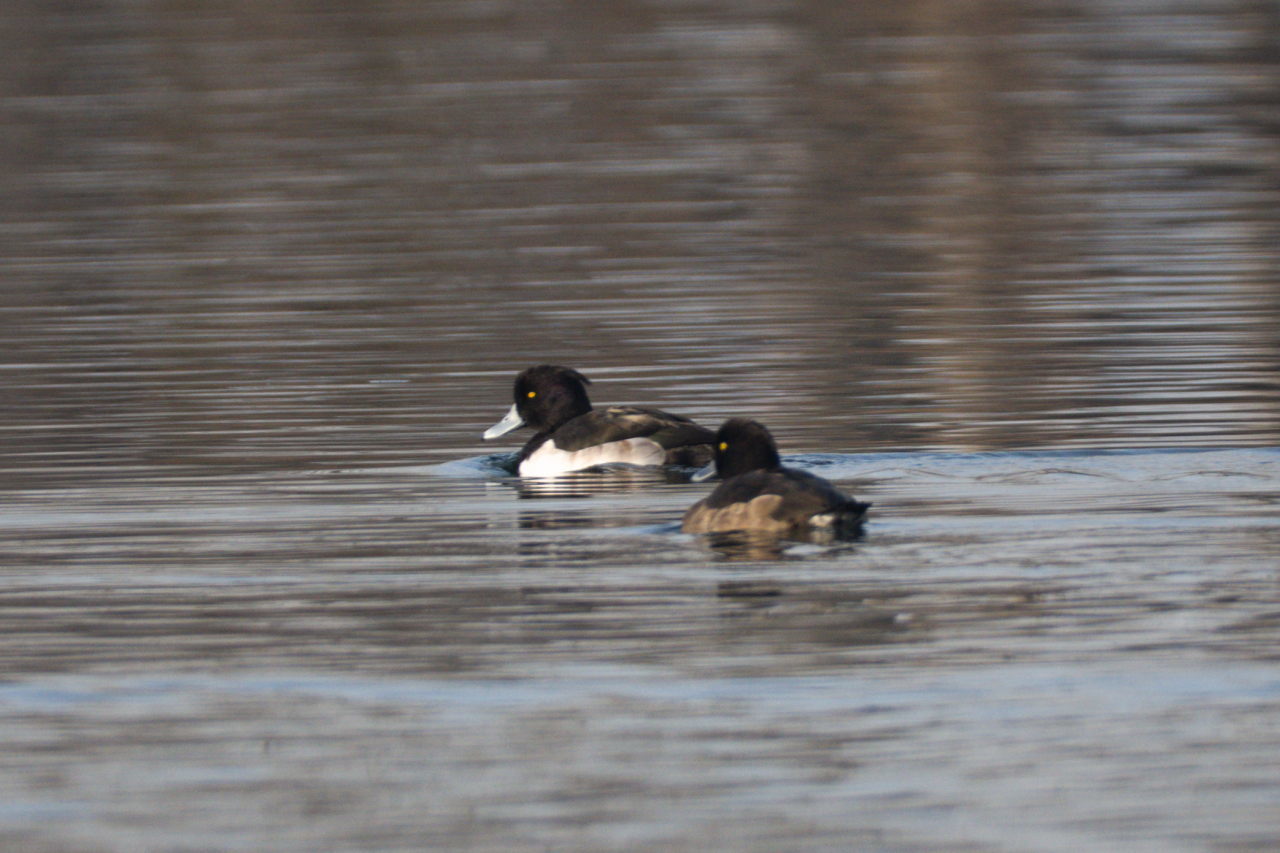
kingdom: Animalia
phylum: Chordata
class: Aves
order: Anseriformes
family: Anatidae
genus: Aythya
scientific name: Aythya fuligula
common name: Tufted duck
